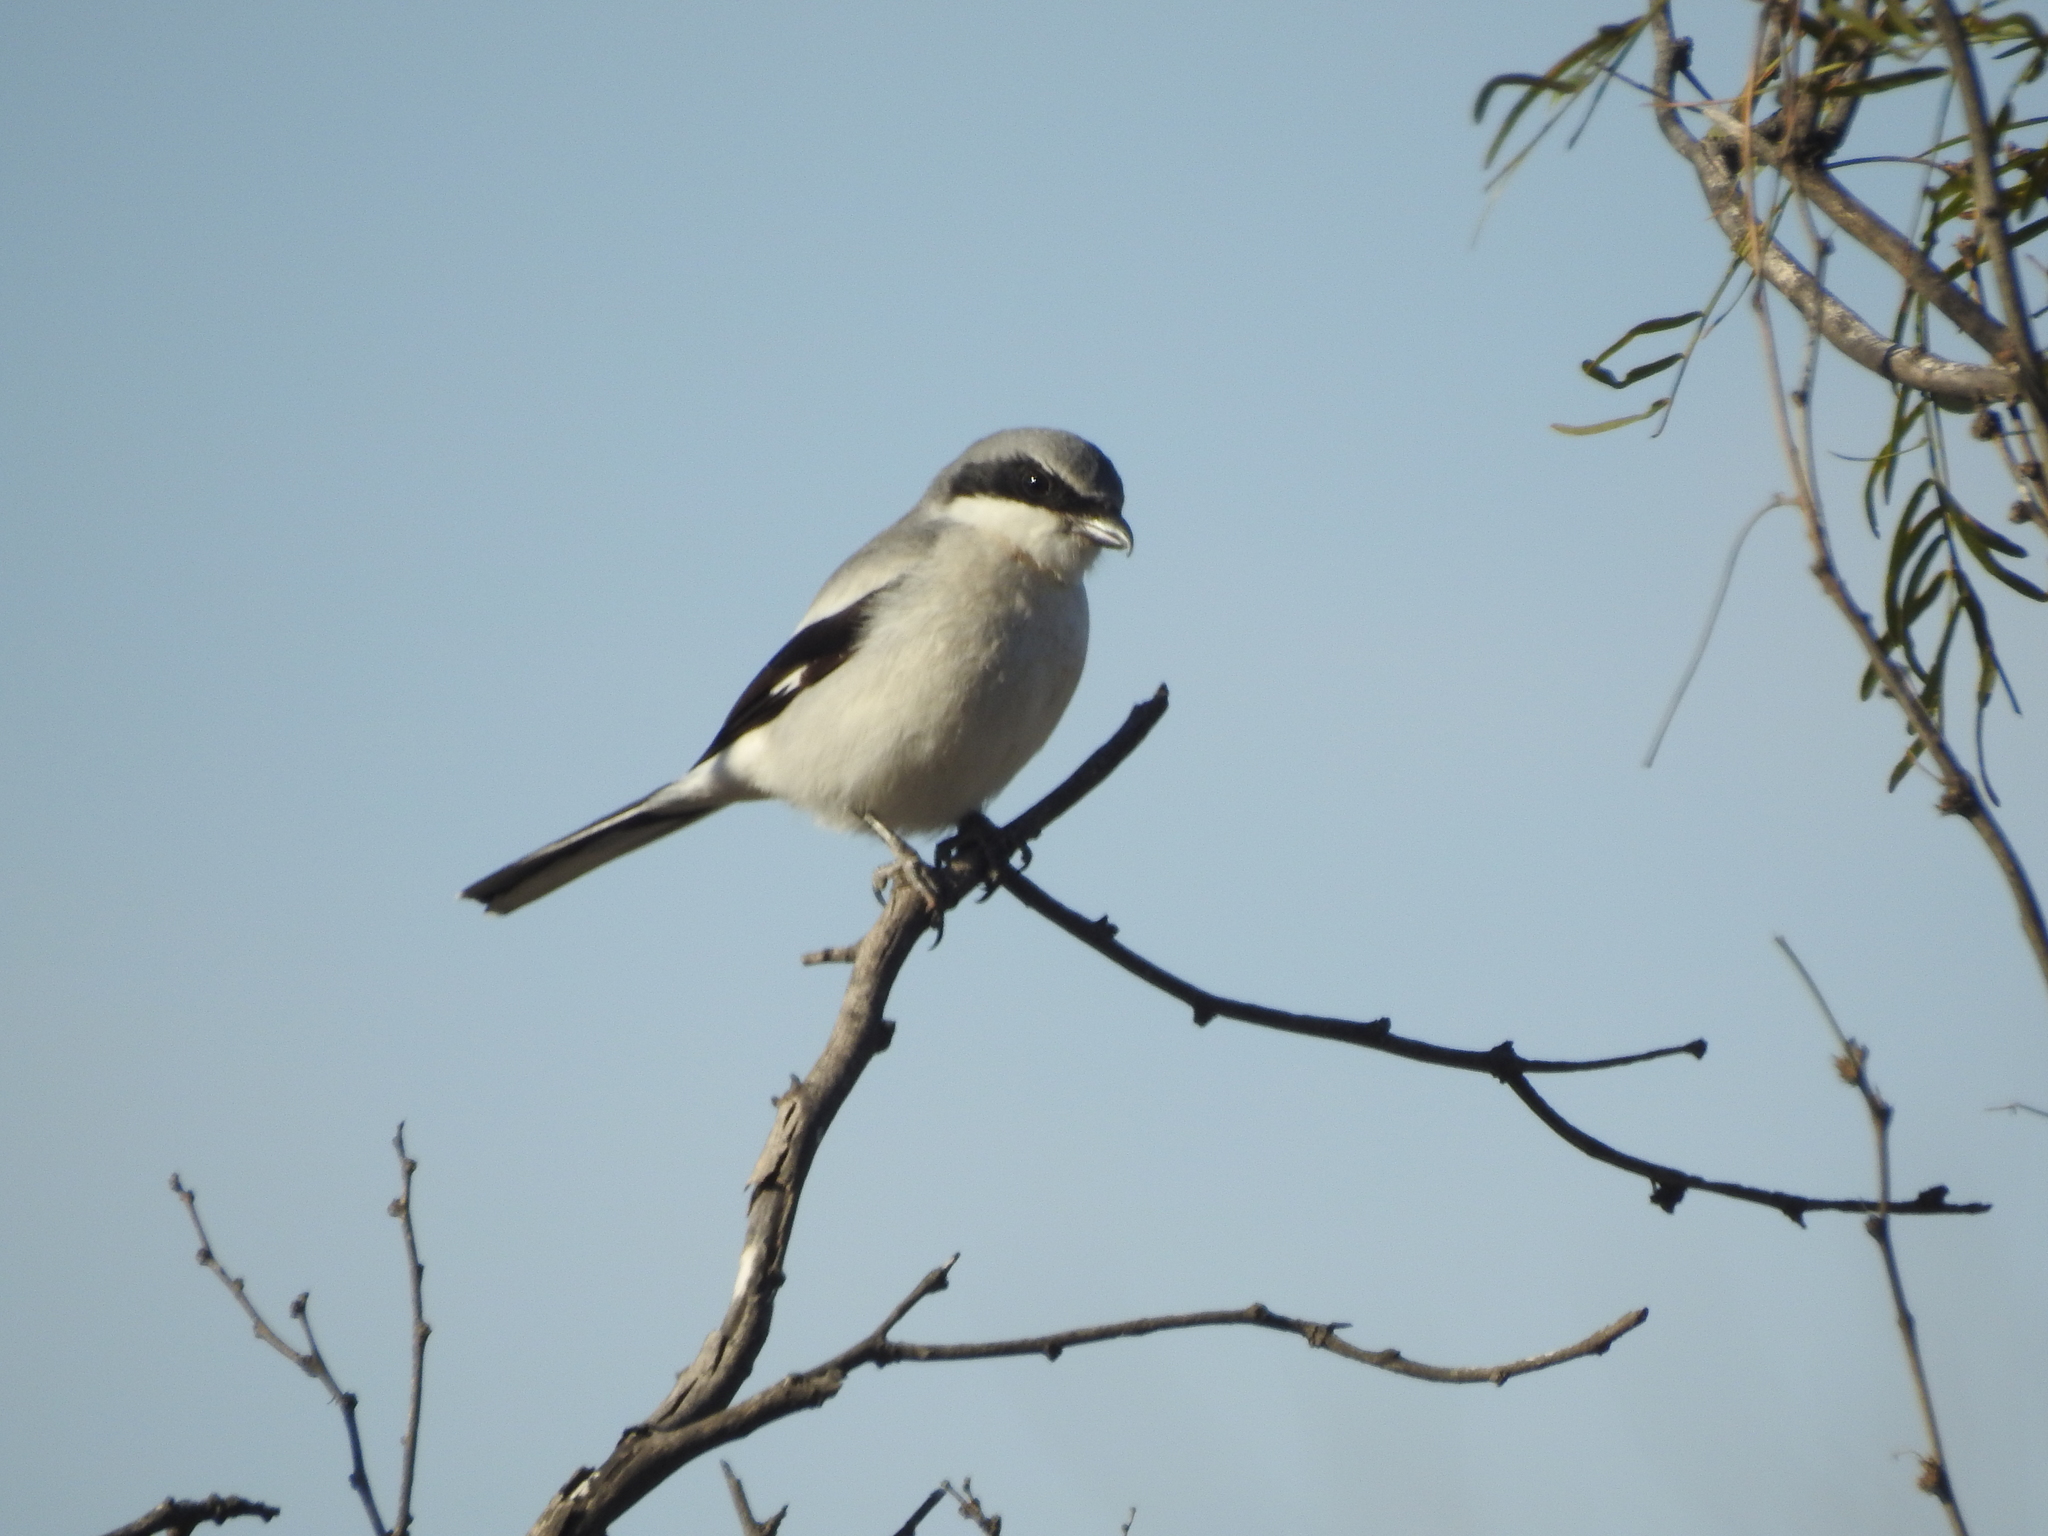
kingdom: Animalia
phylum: Chordata
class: Aves
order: Passeriformes
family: Laniidae
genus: Lanius
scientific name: Lanius ludovicianus
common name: Loggerhead shrike
